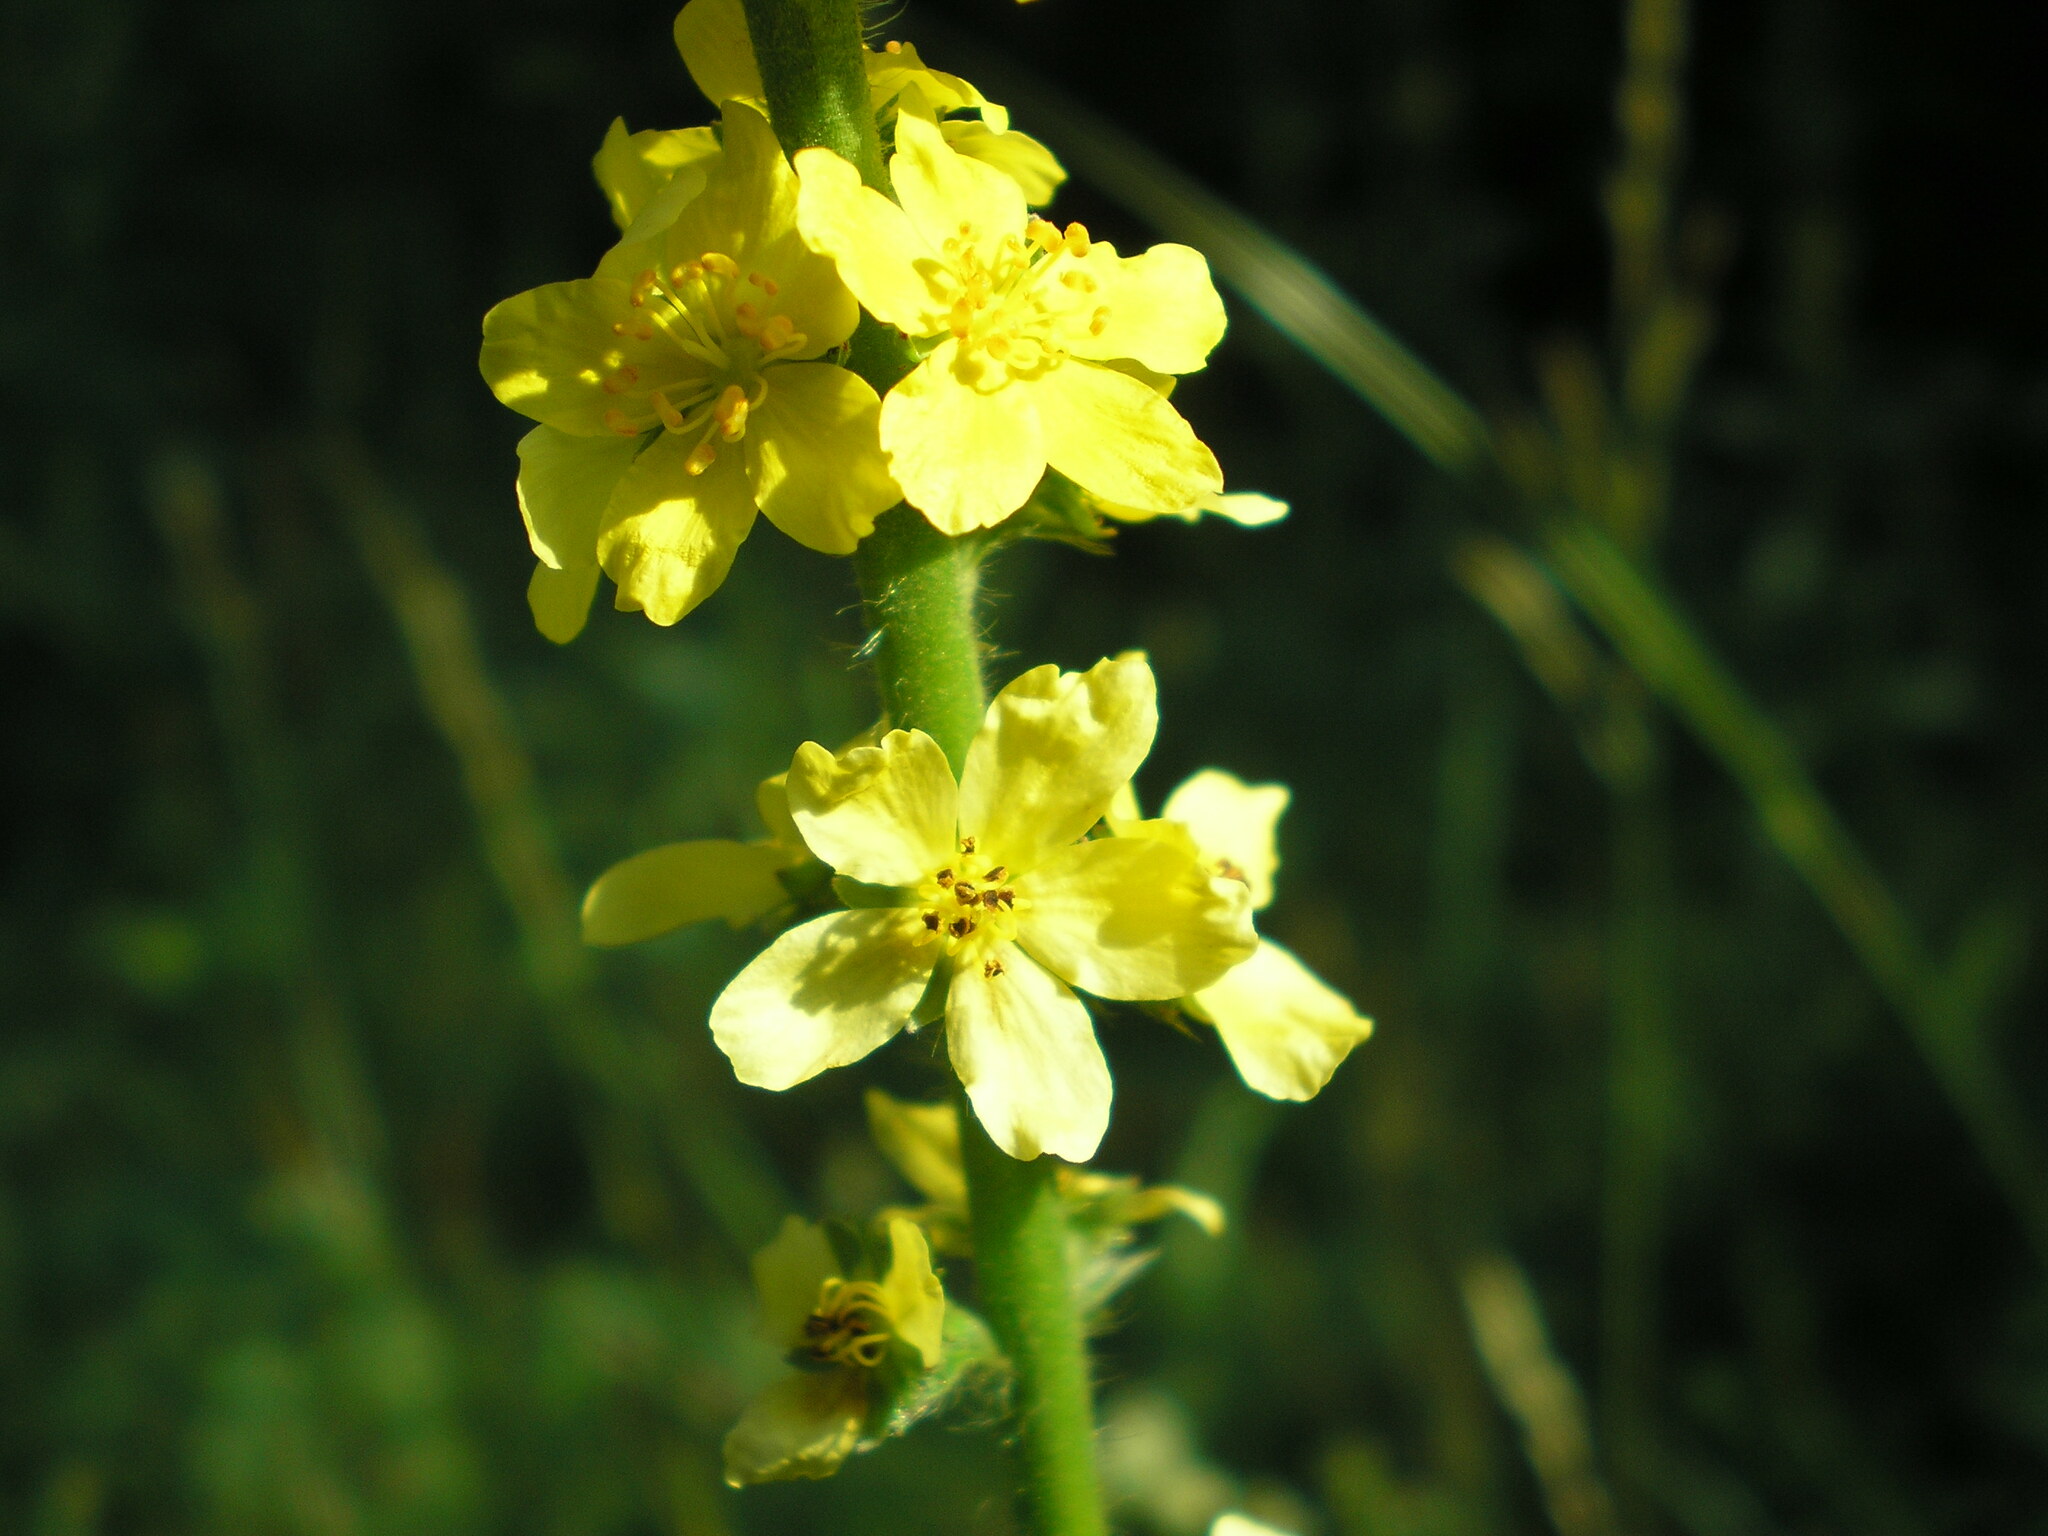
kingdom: Plantae
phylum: Tracheophyta
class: Magnoliopsida
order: Rosales
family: Rosaceae
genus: Agrimonia
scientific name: Agrimonia eupatoria
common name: Agrimony
